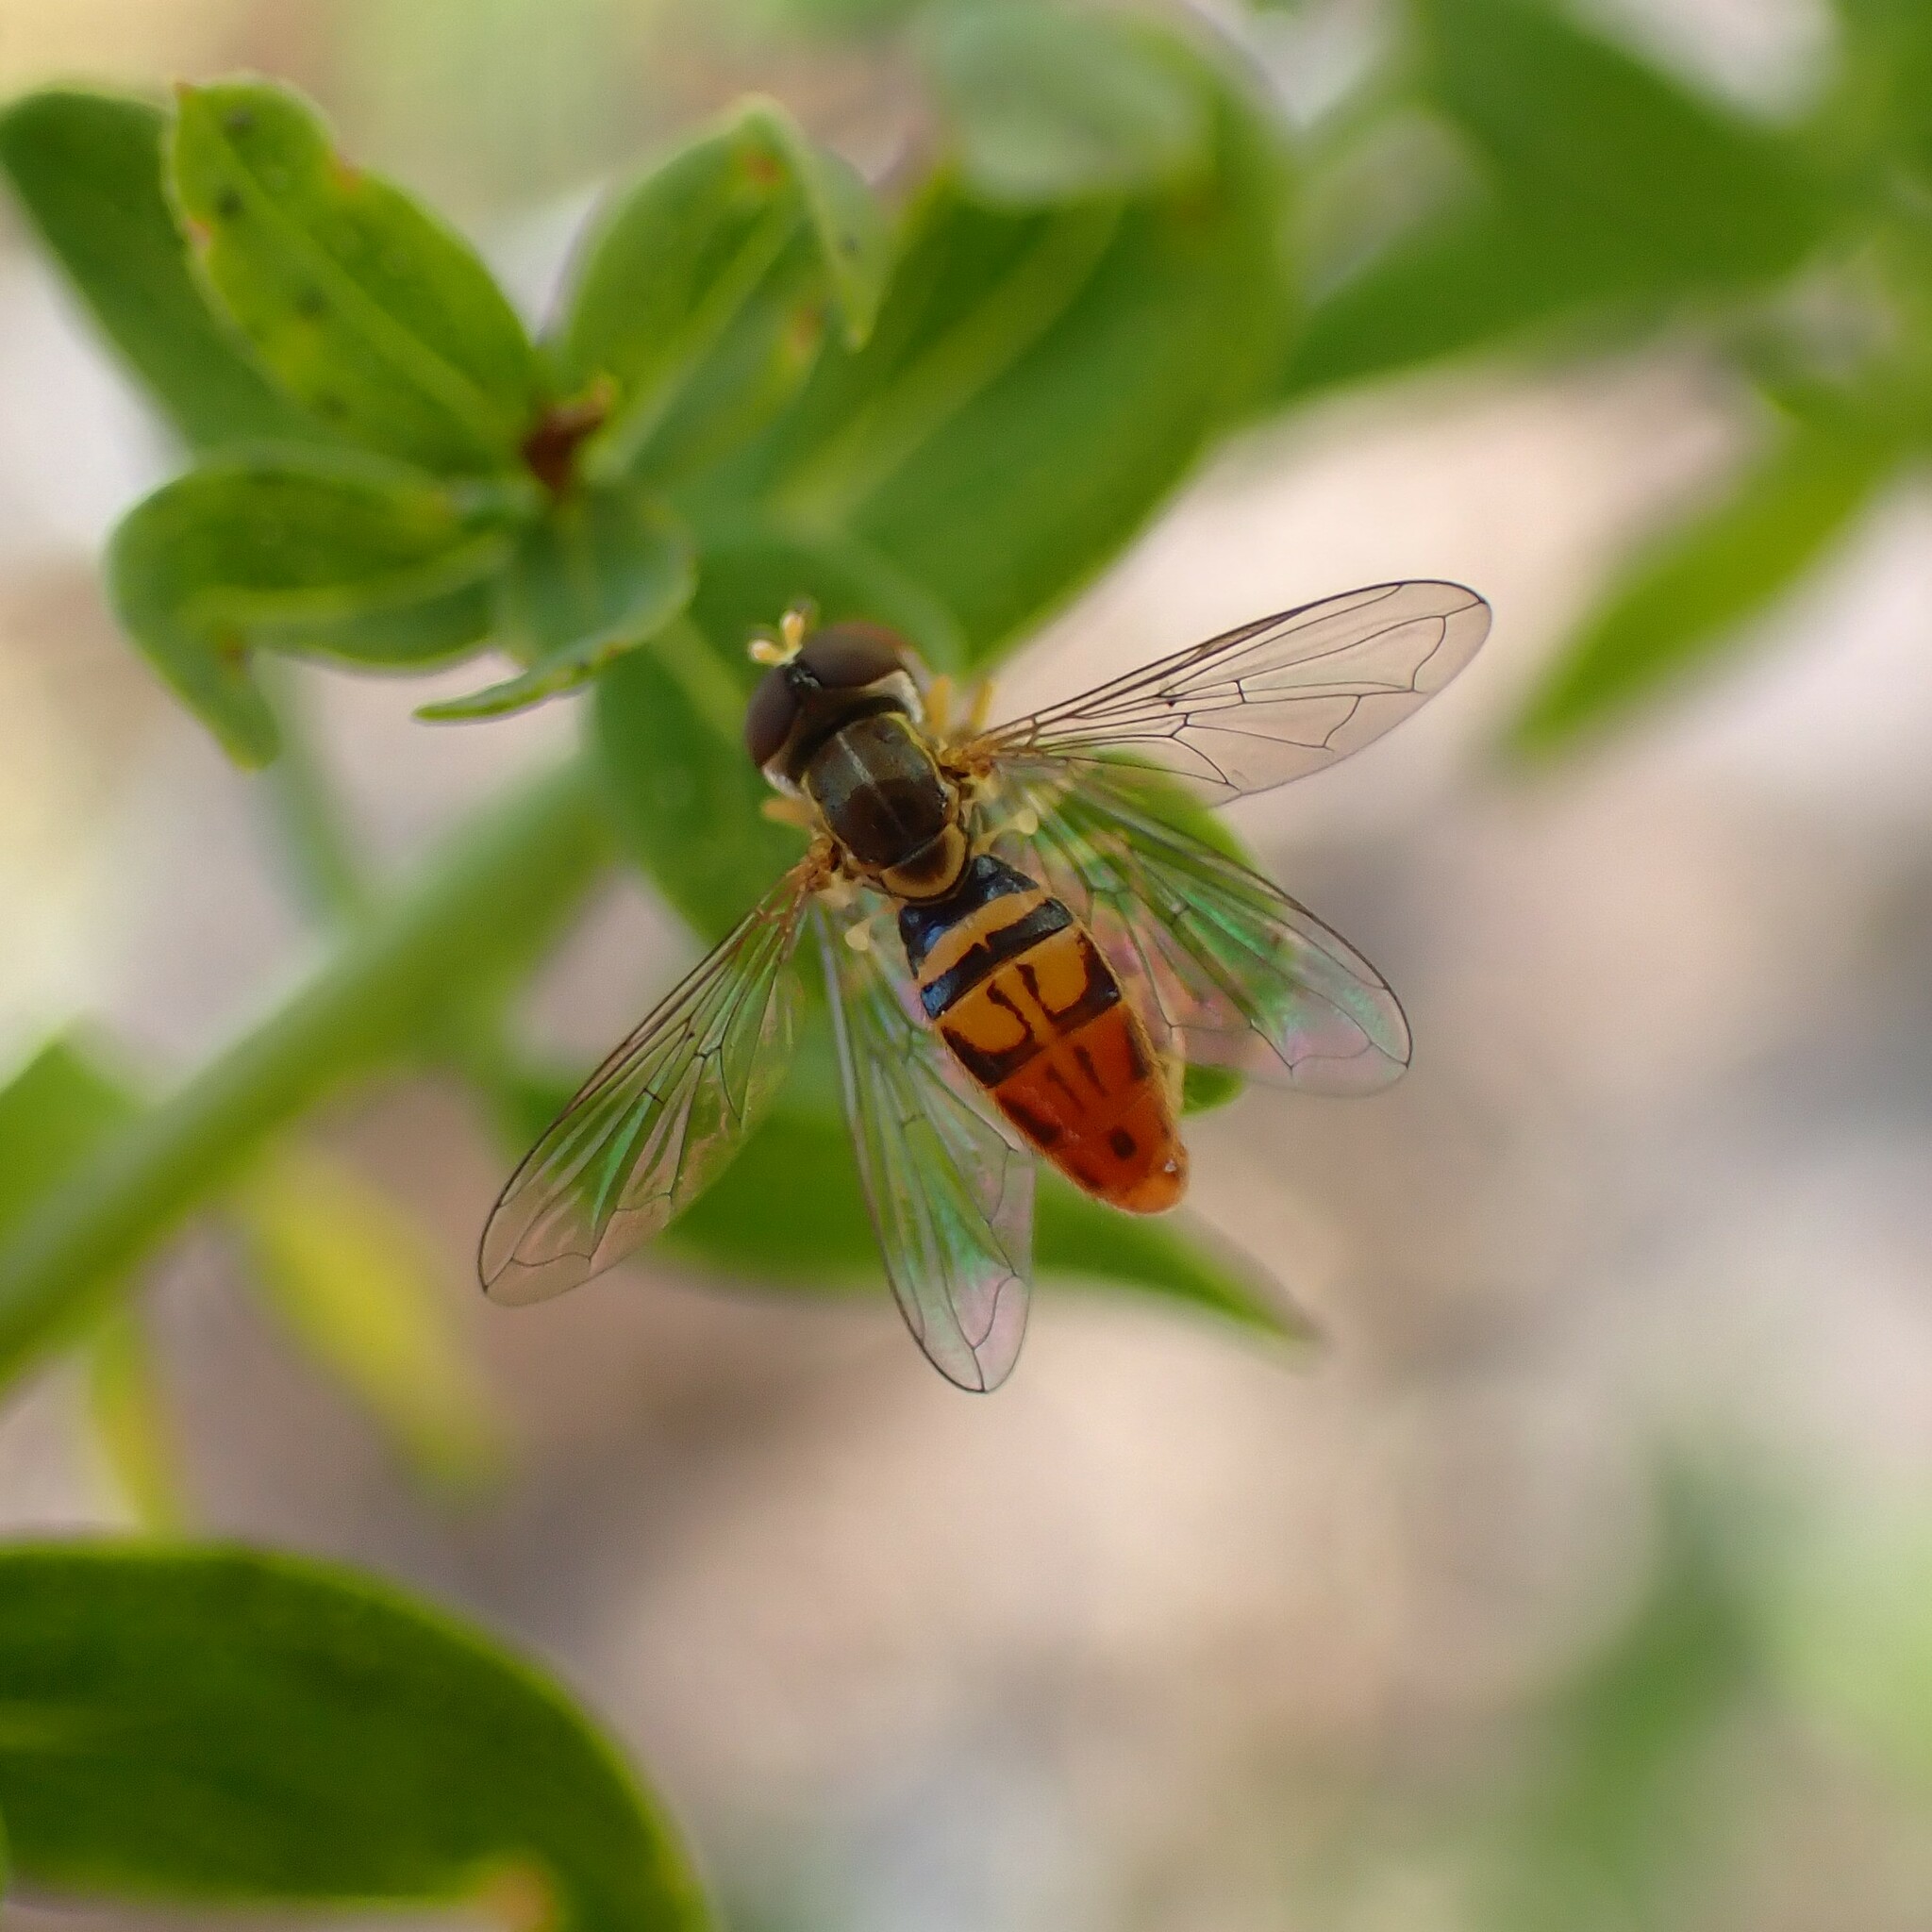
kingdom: Animalia
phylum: Arthropoda
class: Insecta
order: Diptera
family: Syrphidae
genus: Toxomerus
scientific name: Toxomerus marginatus
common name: Syrphid fly
